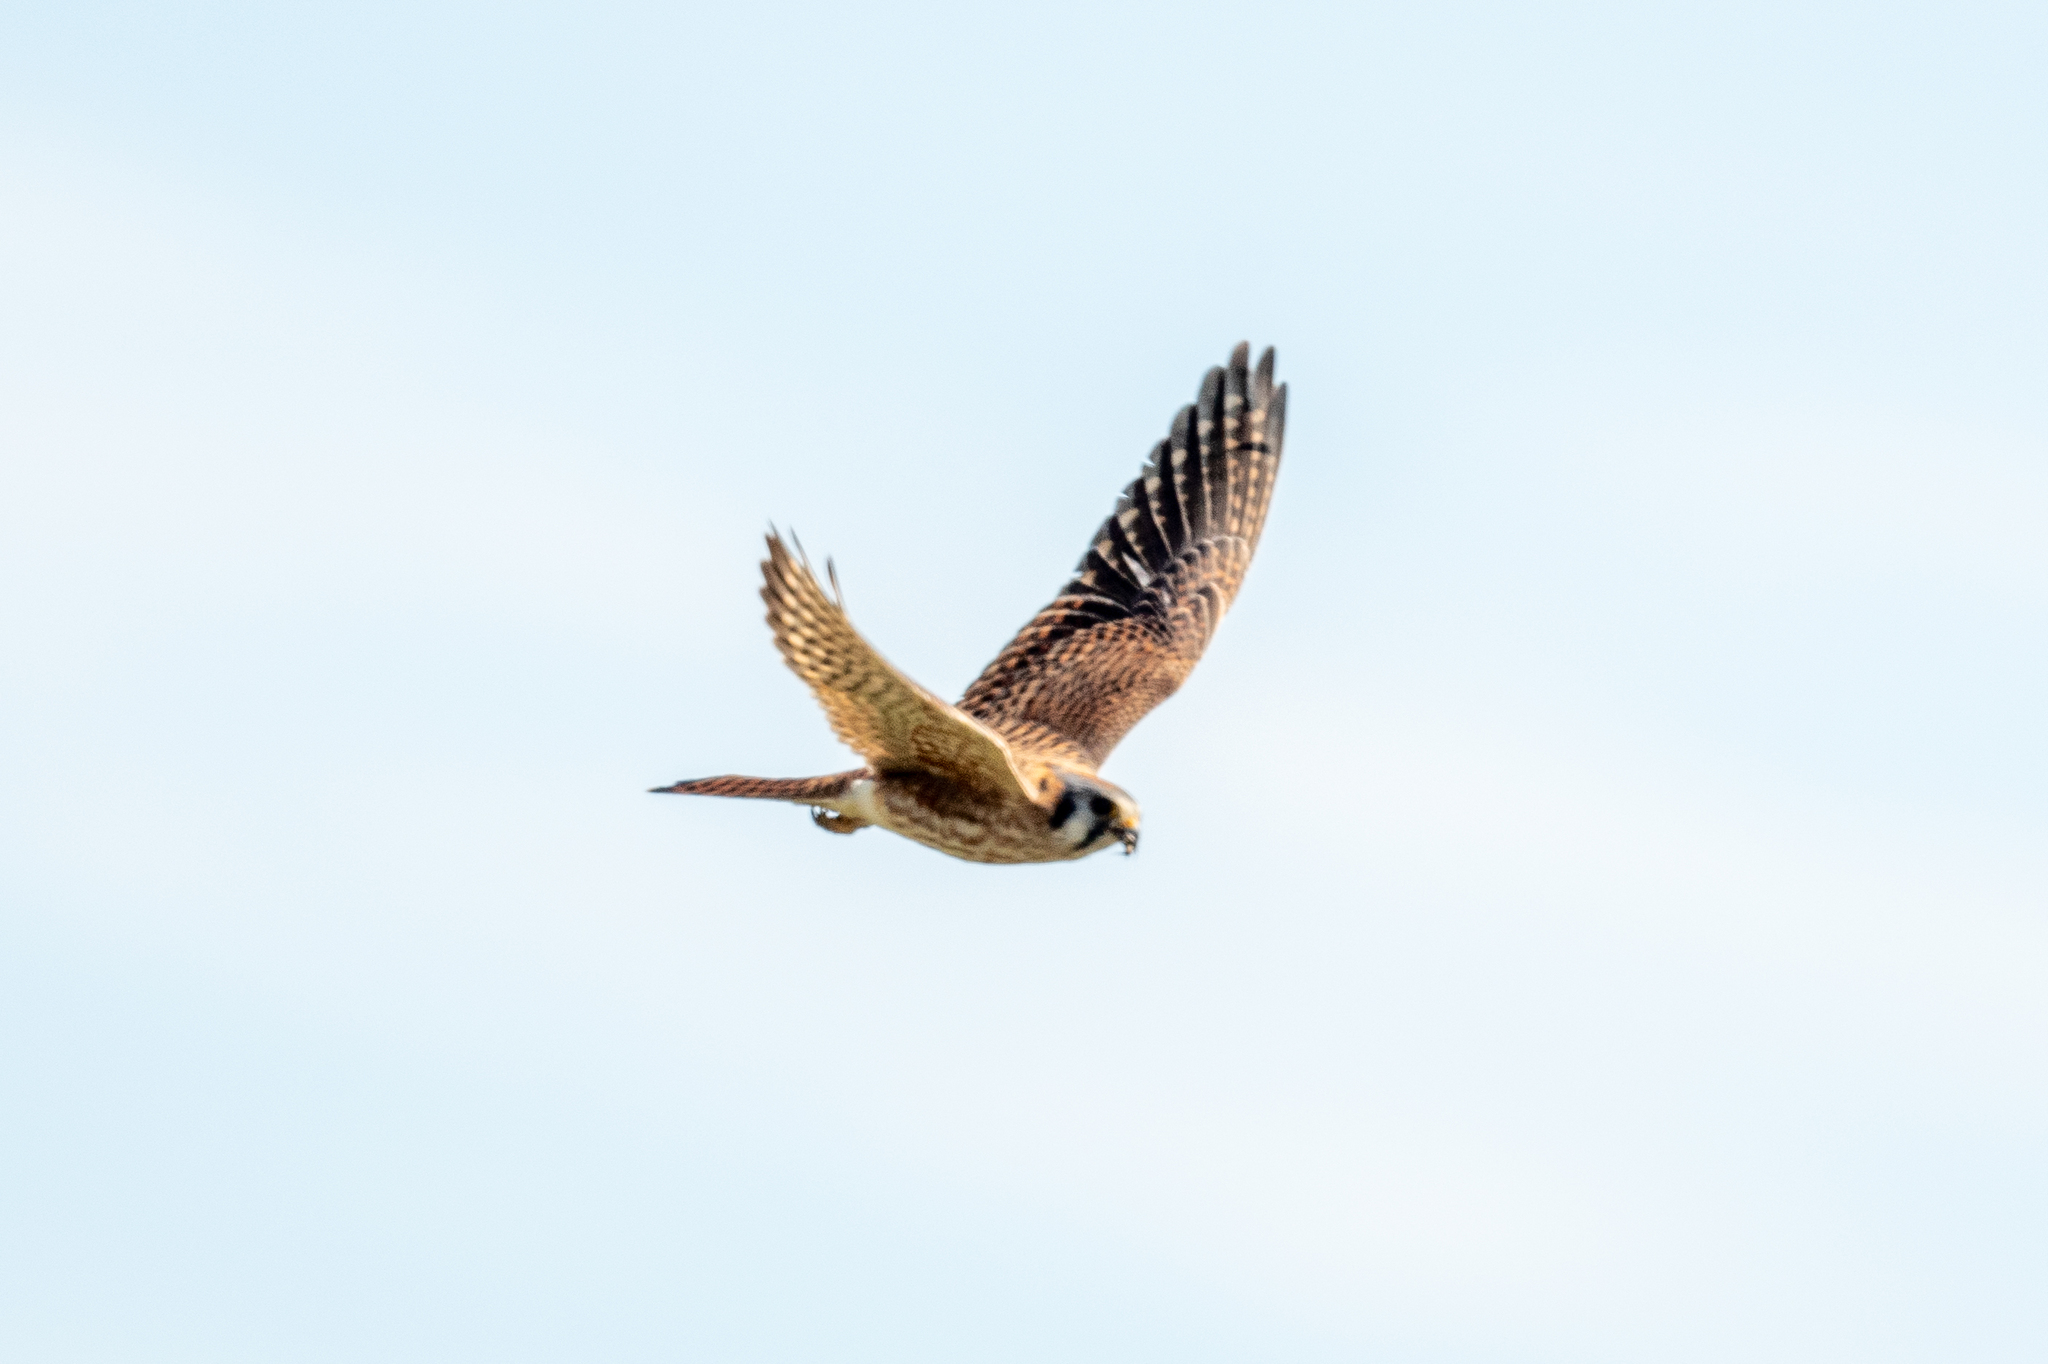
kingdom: Animalia
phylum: Chordata
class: Aves
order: Falconiformes
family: Falconidae
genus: Falco
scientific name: Falco sparverius
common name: American kestrel
